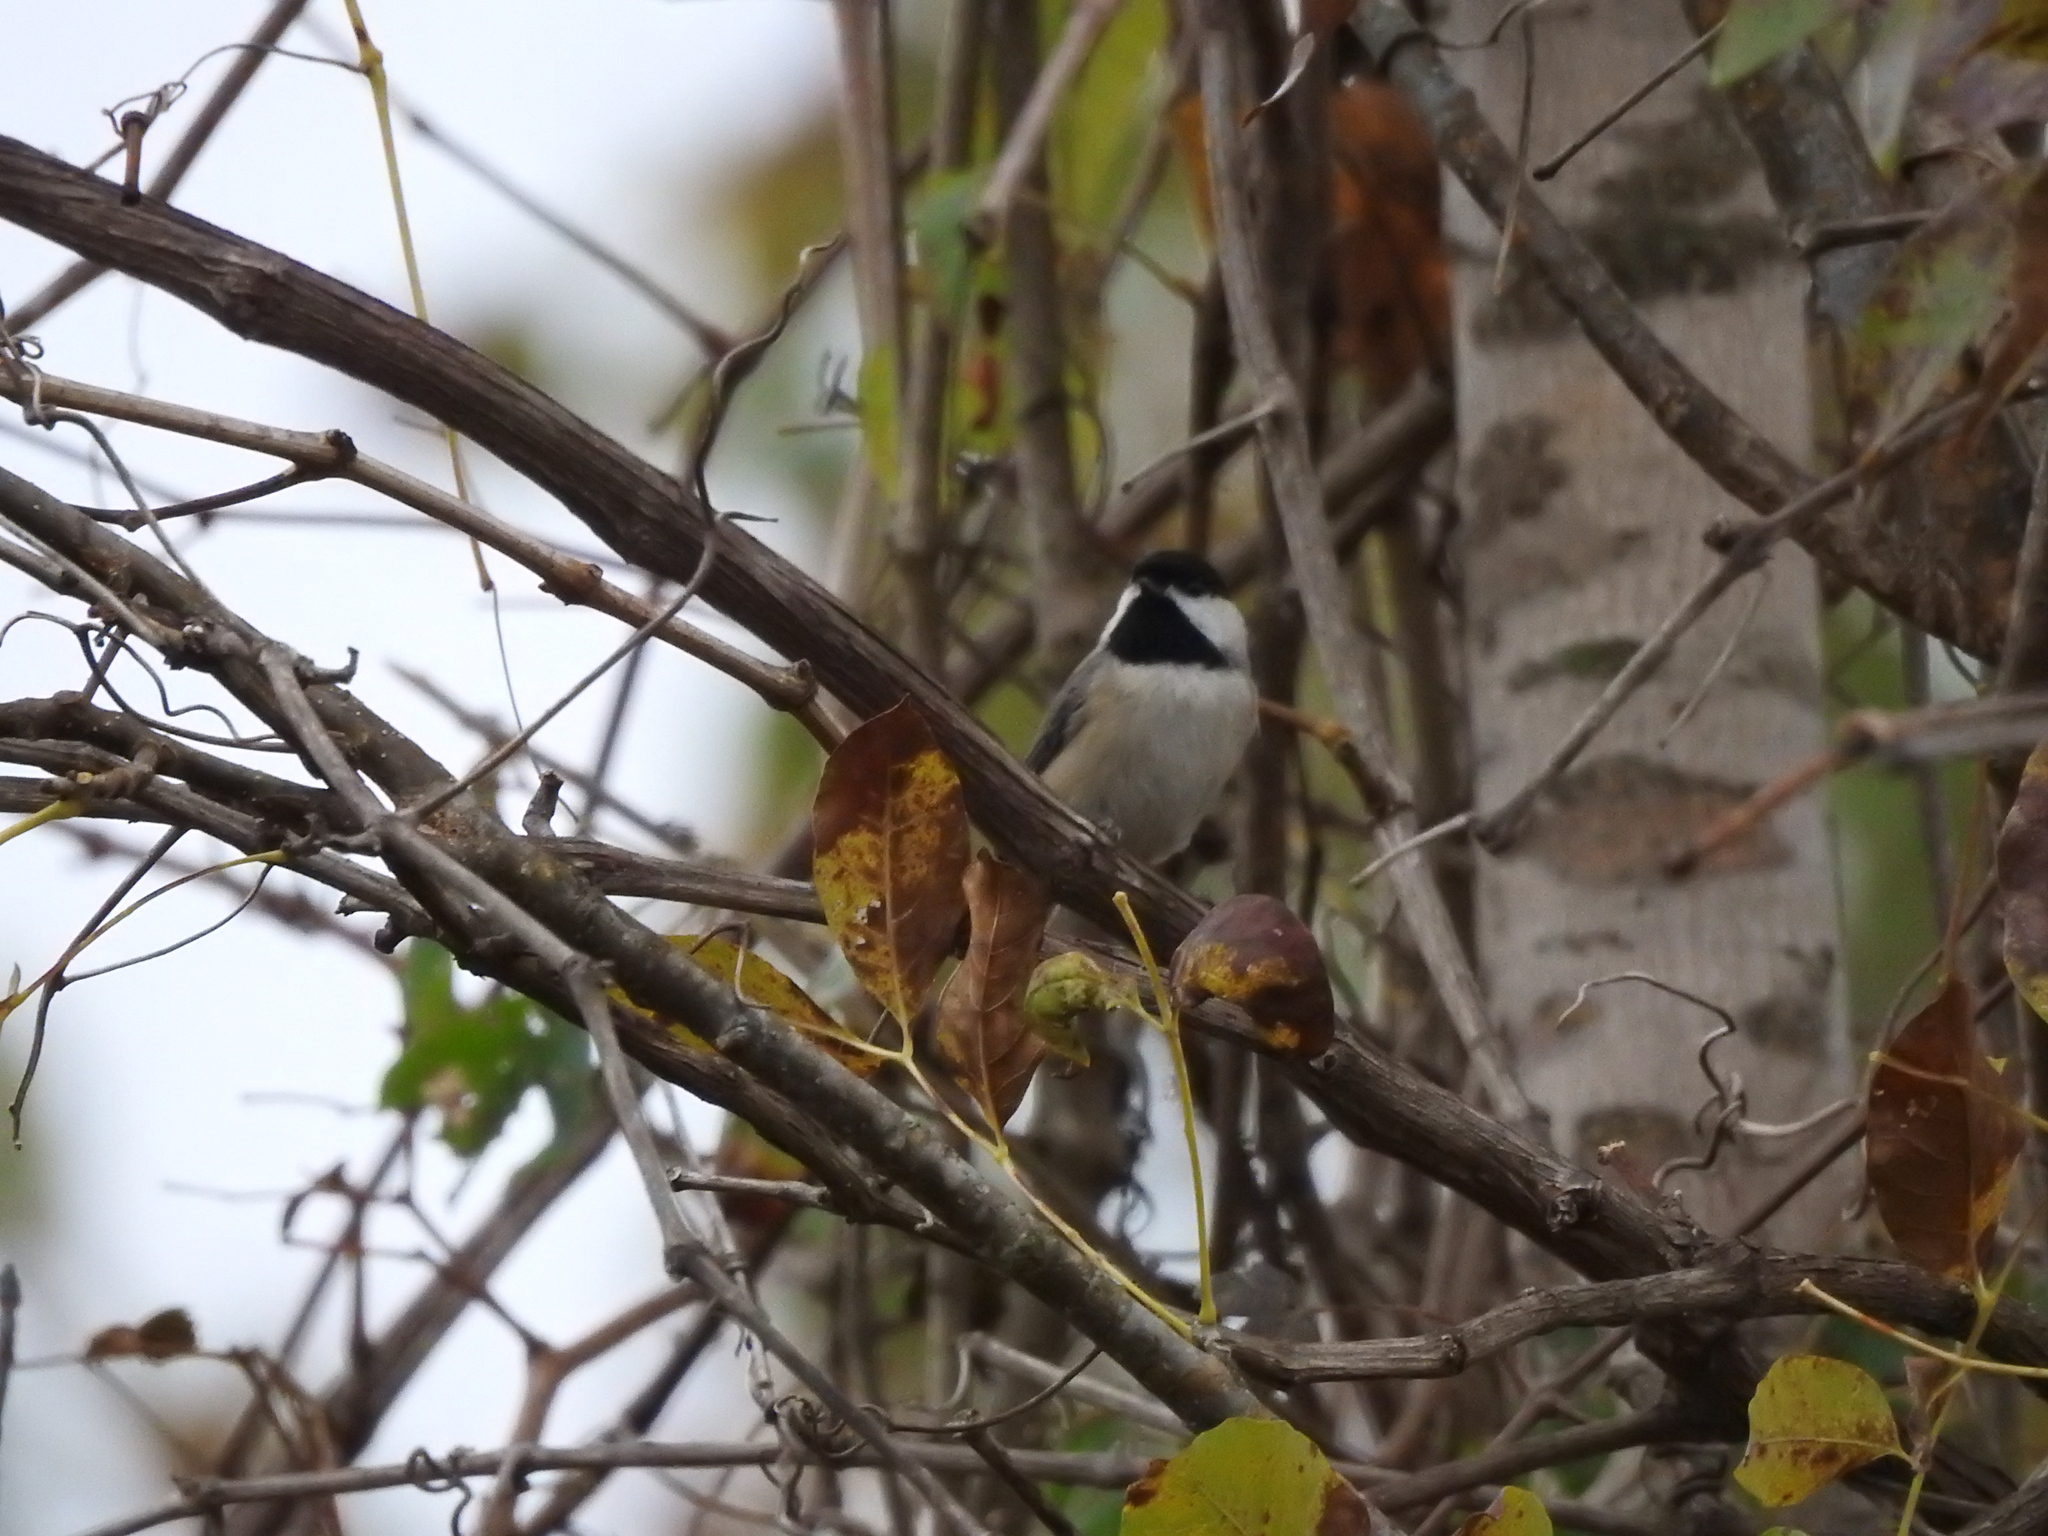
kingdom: Animalia
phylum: Chordata
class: Aves
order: Passeriformes
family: Paridae
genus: Poecile
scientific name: Poecile carolinensis
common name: Carolina chickadee
